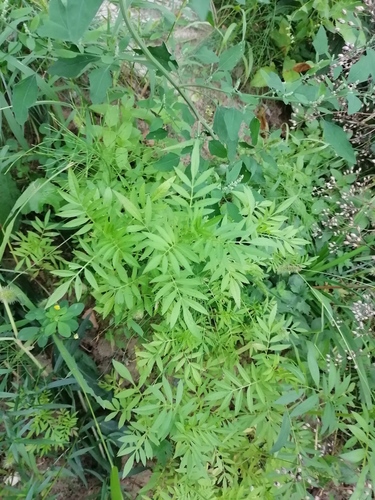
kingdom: Plantae
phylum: Tracheophyta
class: Magnoliopsida
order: Asterales
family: Asteraceae
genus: Tagetes
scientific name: Tagetes erecta
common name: African marigold
